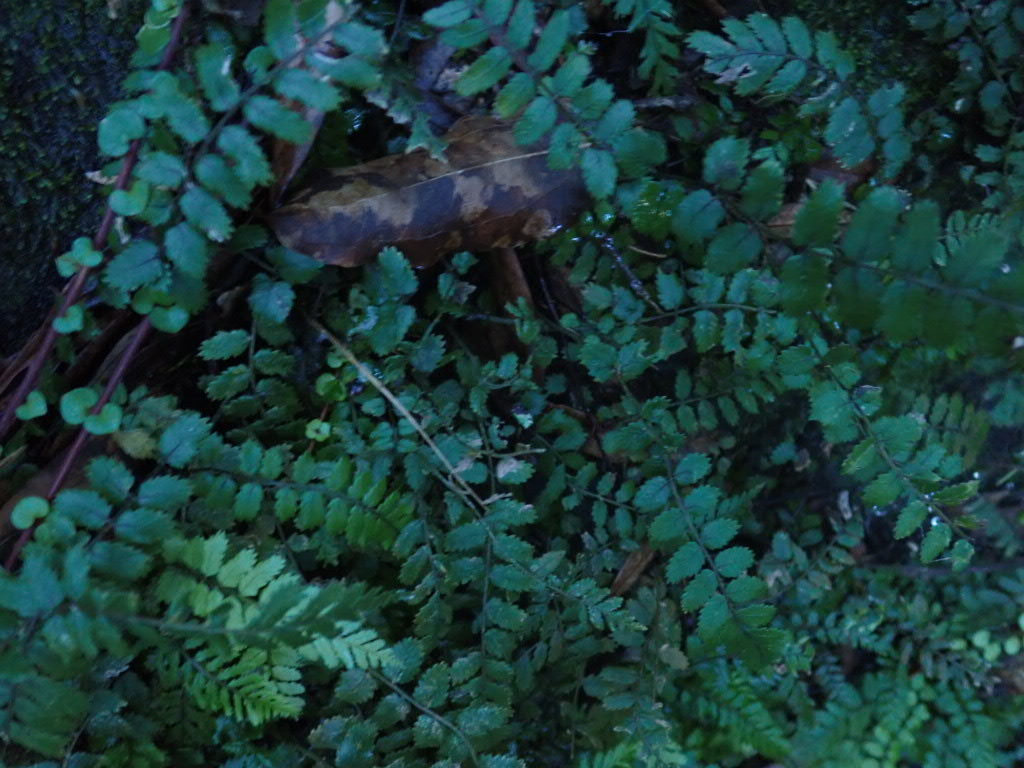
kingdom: Plantae
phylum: Tracheophyta
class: Polypodiopsida
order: Polypodiales
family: Blechnaceae
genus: Icarus
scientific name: Icarus filiformis
